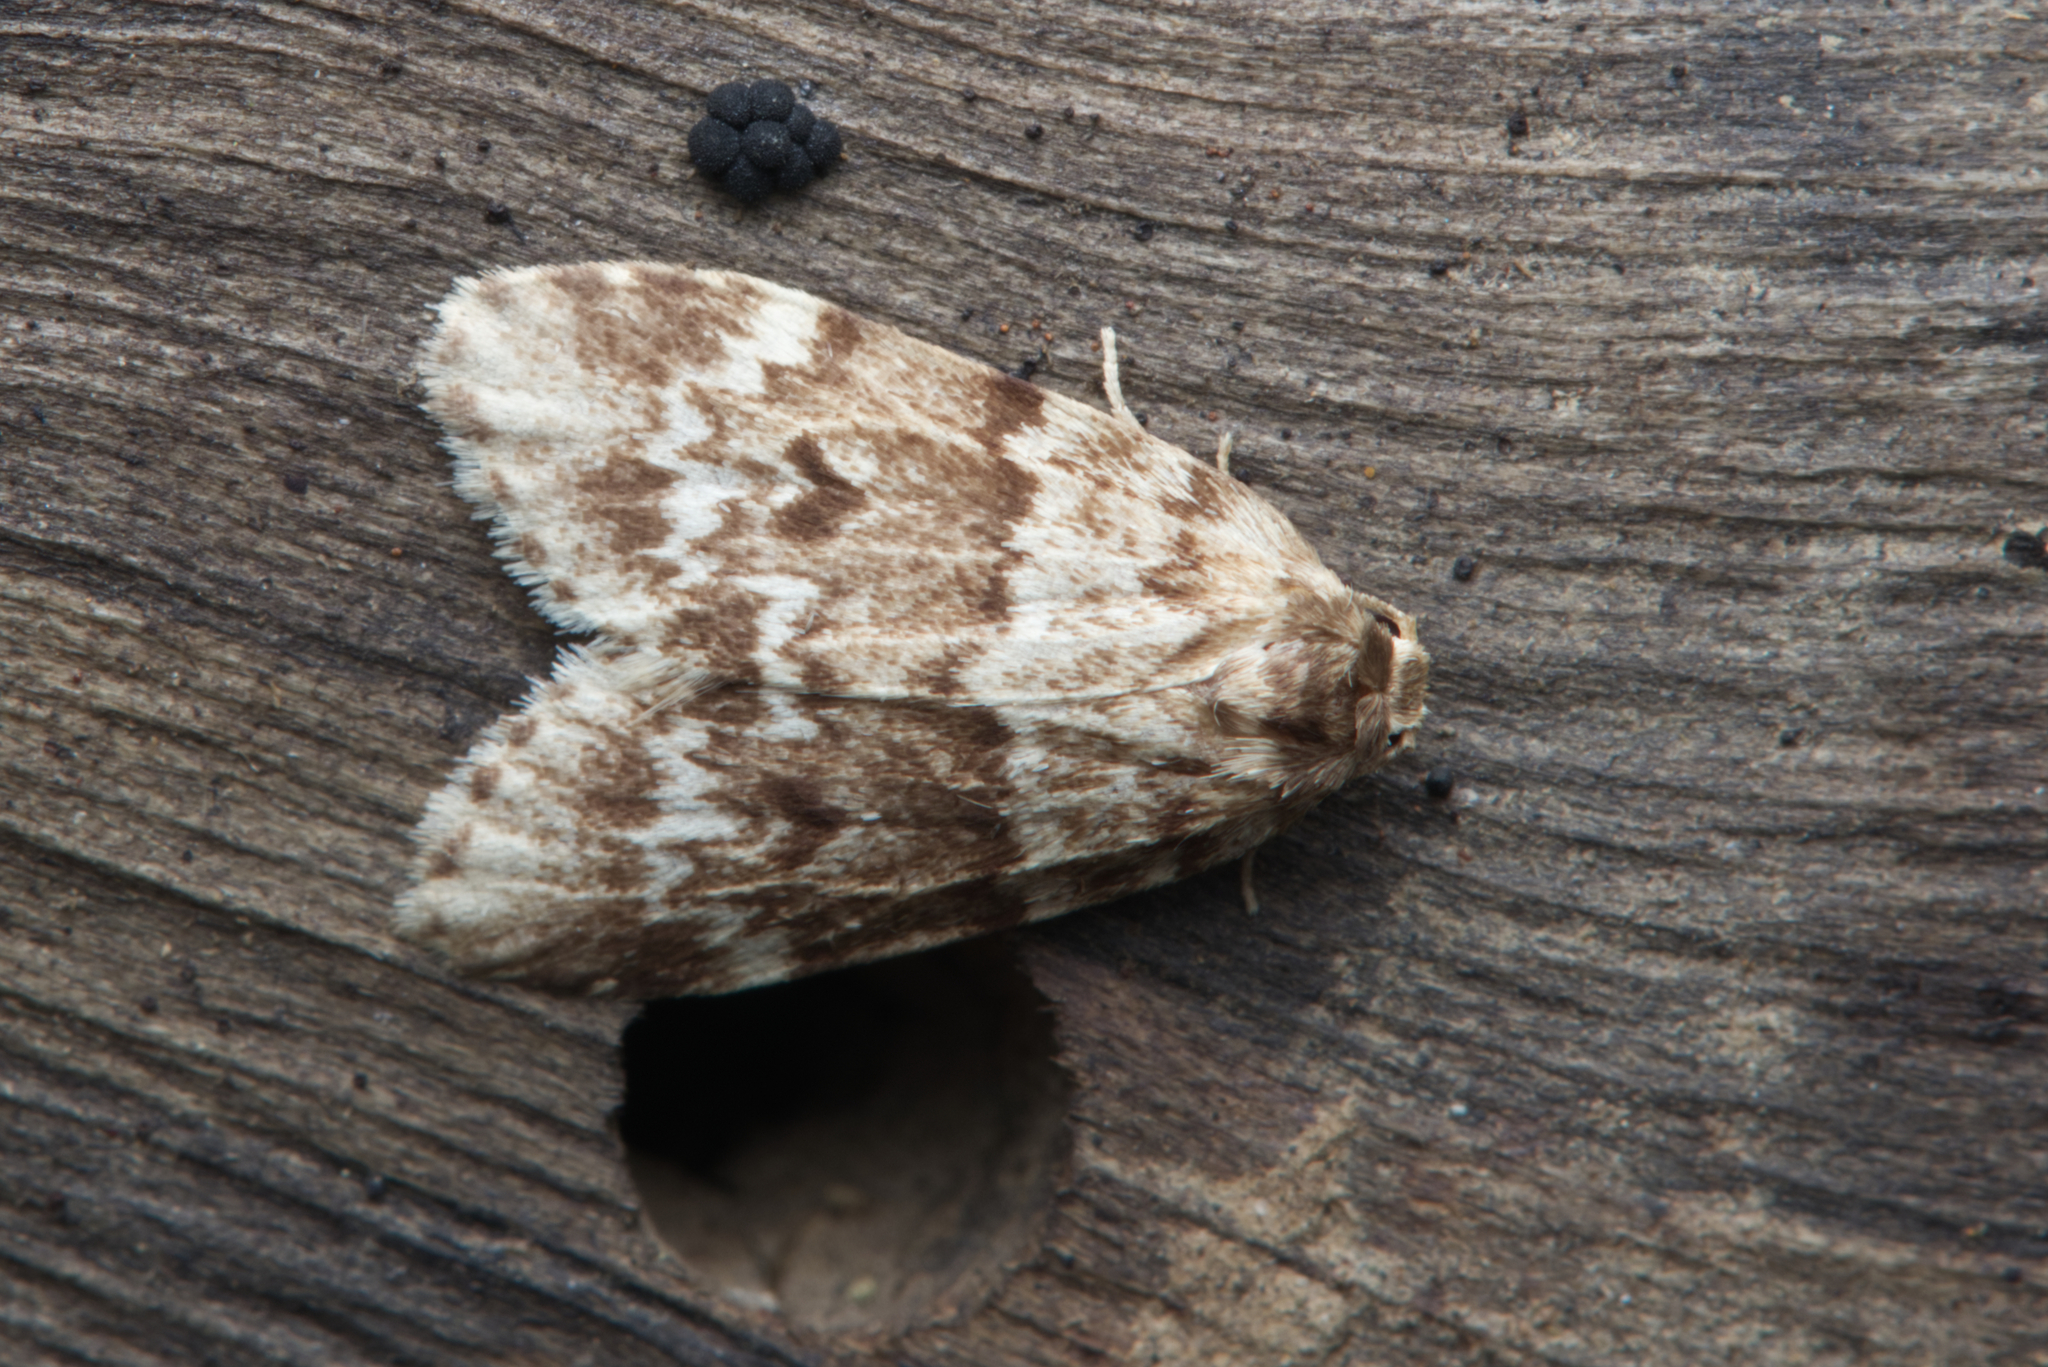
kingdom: Animalia
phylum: Arthropoda
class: Insecta
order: Lepidoptera
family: Erebidae
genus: Scaphidriotis
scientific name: Scaphidriotis xylogramma
